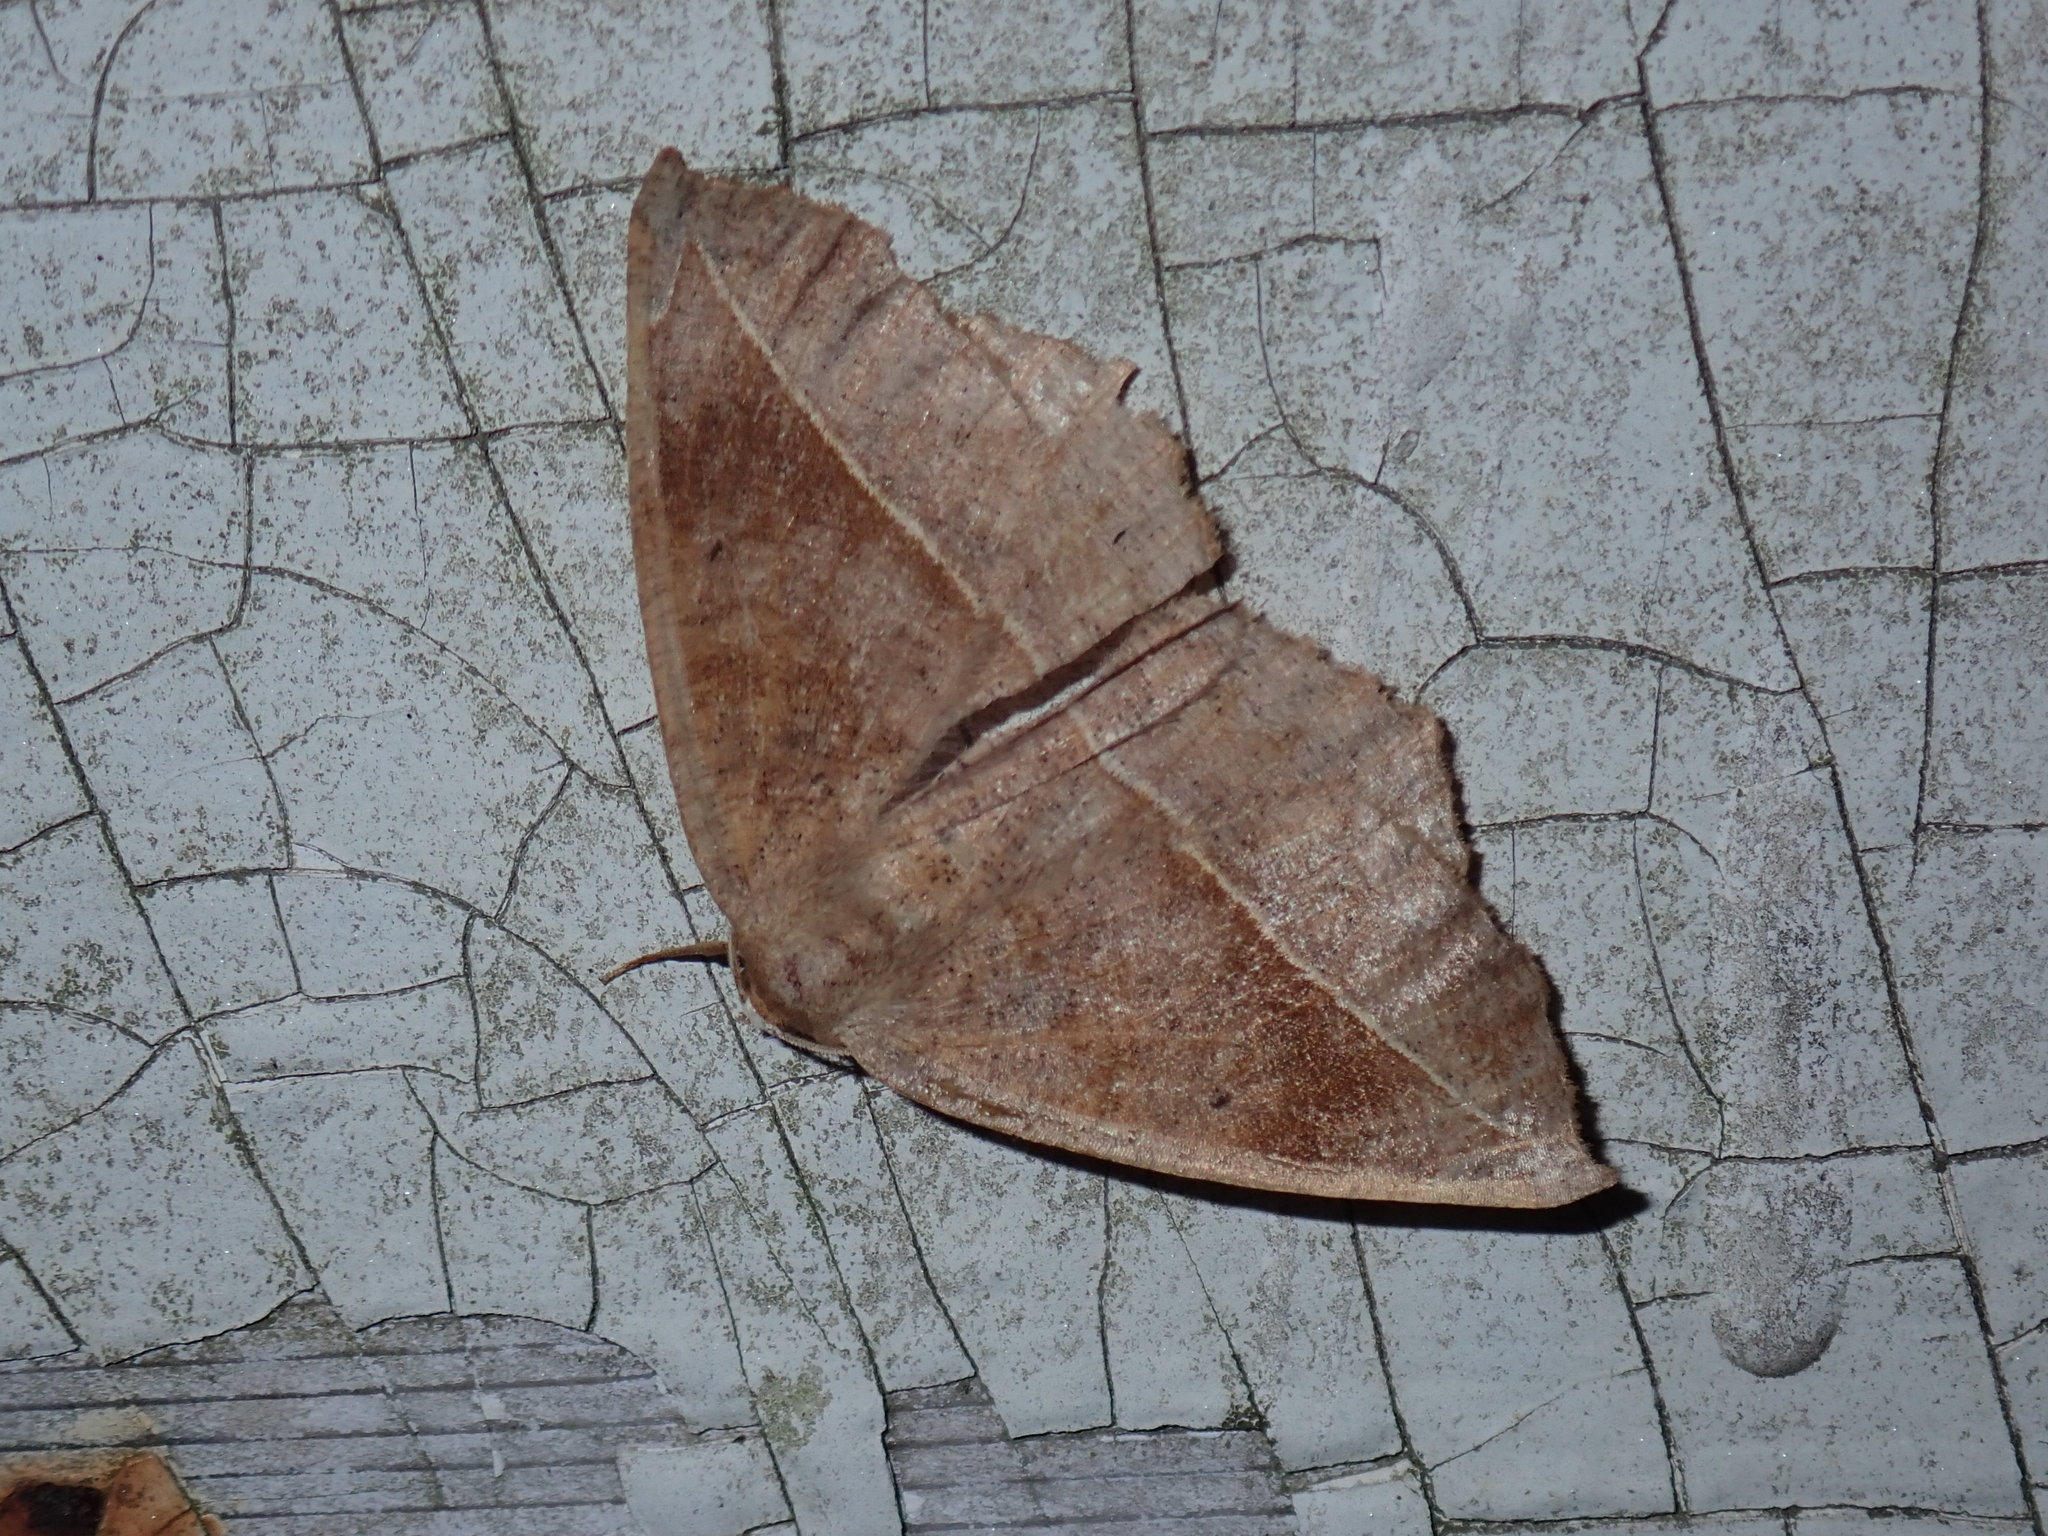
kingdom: Animalia
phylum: Arthropoda
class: Insecta
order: Lepidoptera
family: Geometridae
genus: Eutrapela
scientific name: Eutrapela clemataria
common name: Curved-toothed geometer
